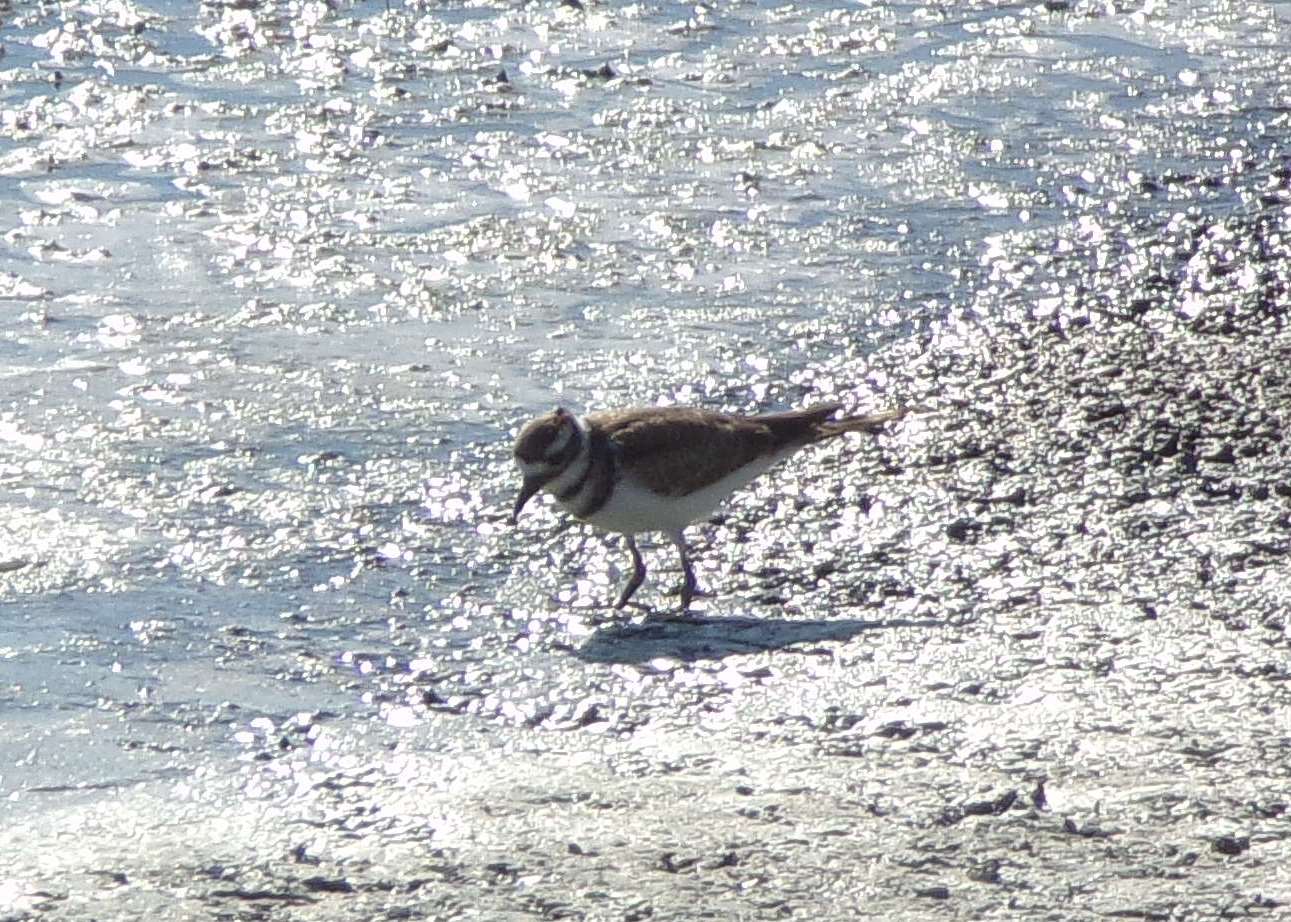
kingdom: Animalia
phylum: Chordata
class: Aves
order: Charadriiformes
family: Charadriidae
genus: Charadrius
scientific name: Charadrius vociferus
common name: Killdeer
